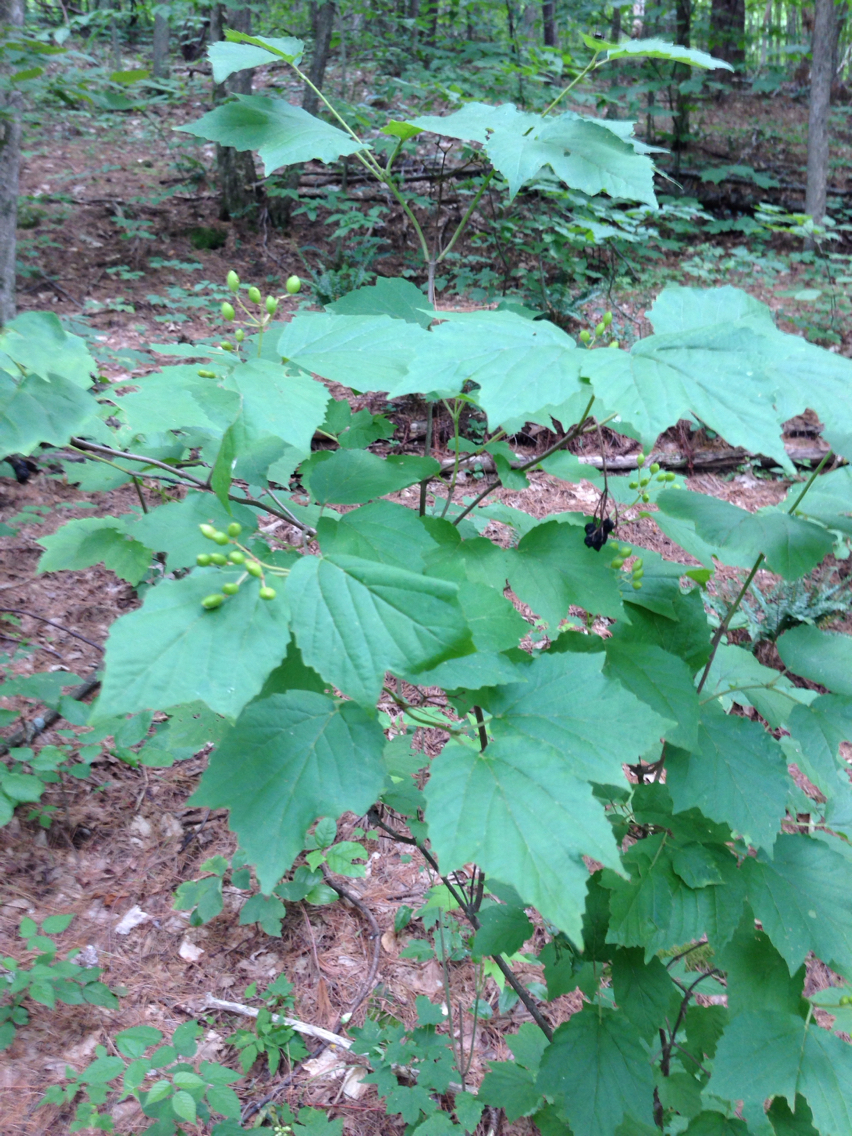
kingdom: Plantae
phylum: Tracheophyta
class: Magnoliopsida
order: Dipsacales
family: Viburnaceae
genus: Viburnum
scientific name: Viburnum acerifolium
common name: Dockmackie
